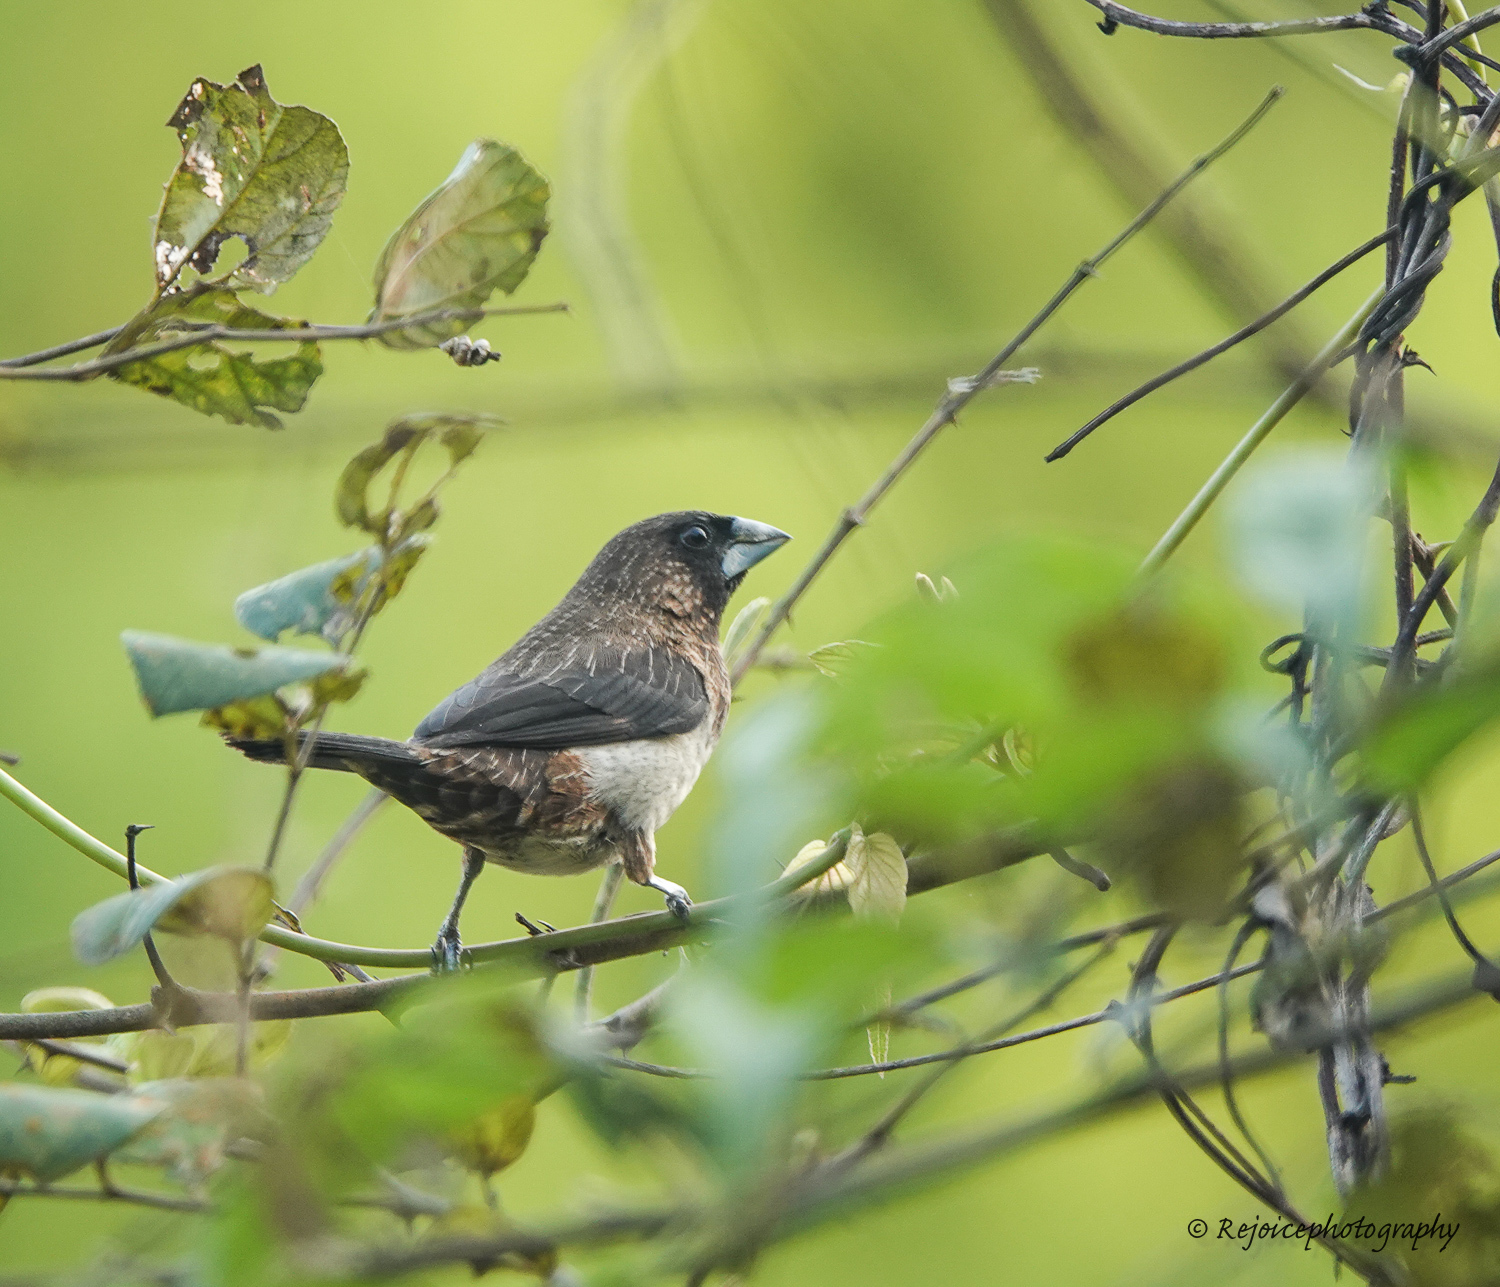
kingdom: Animalia
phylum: Chordata
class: Aves
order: Passeriformes
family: Estrildidae
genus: Lonchura
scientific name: Lonchura striata
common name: White-rumped munia
